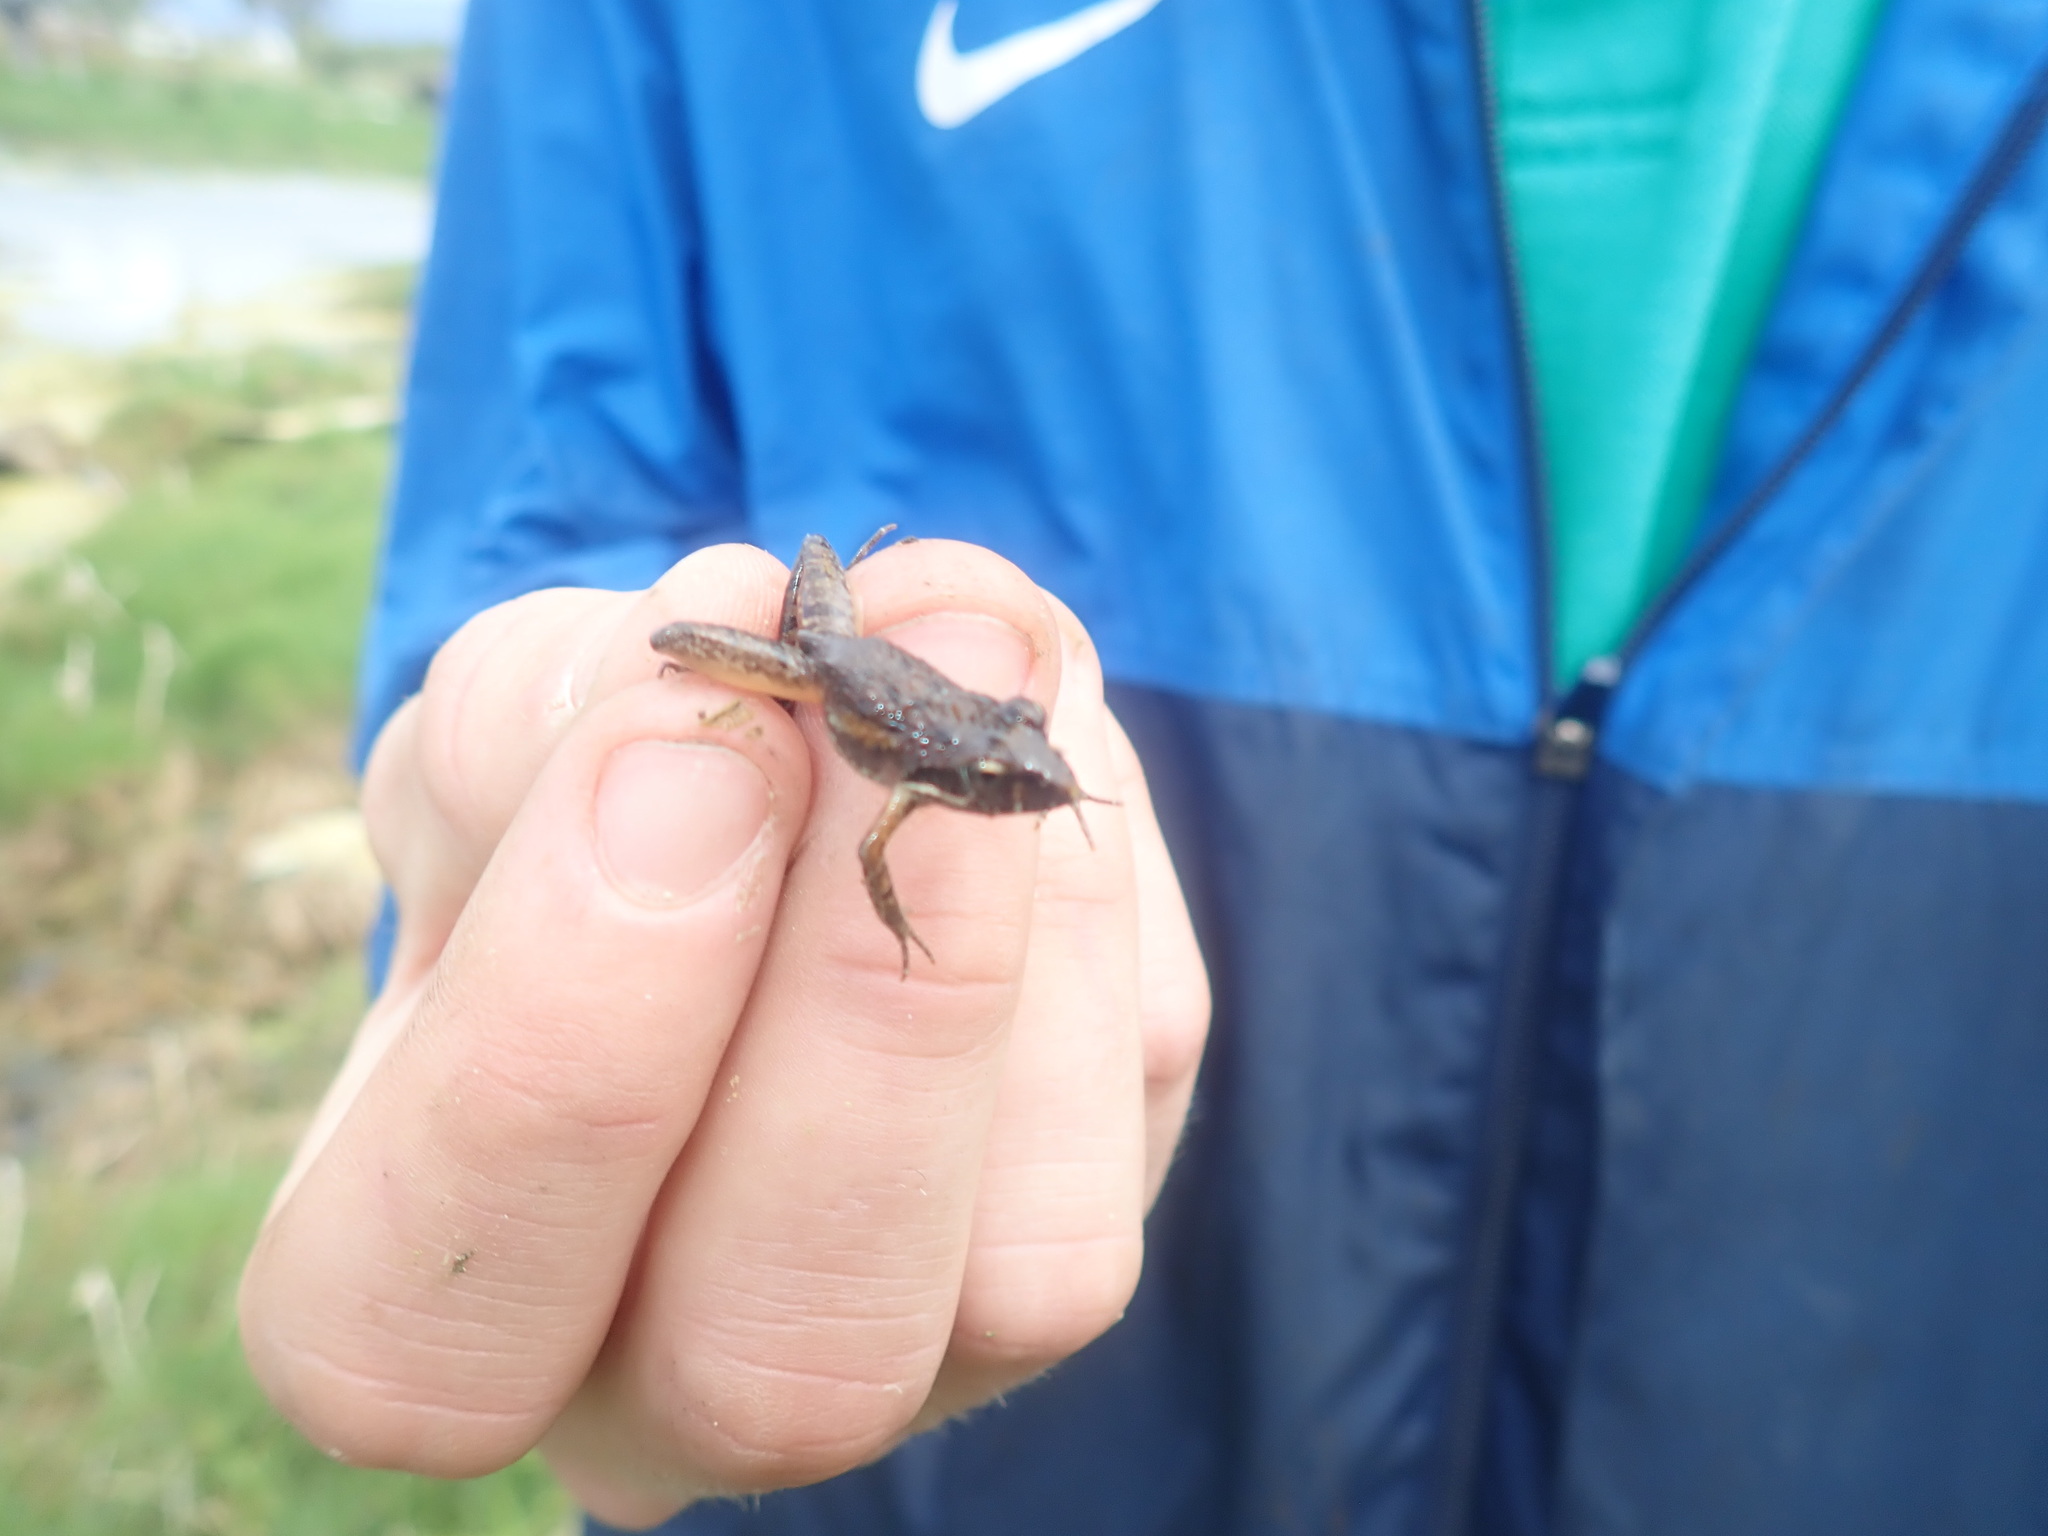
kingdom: Animalia
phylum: Chordata
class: Amphibia
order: Anura
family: Pyxicephalidae
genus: Strongylopus
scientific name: Strongylopus grayii
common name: Gray's stream frog
